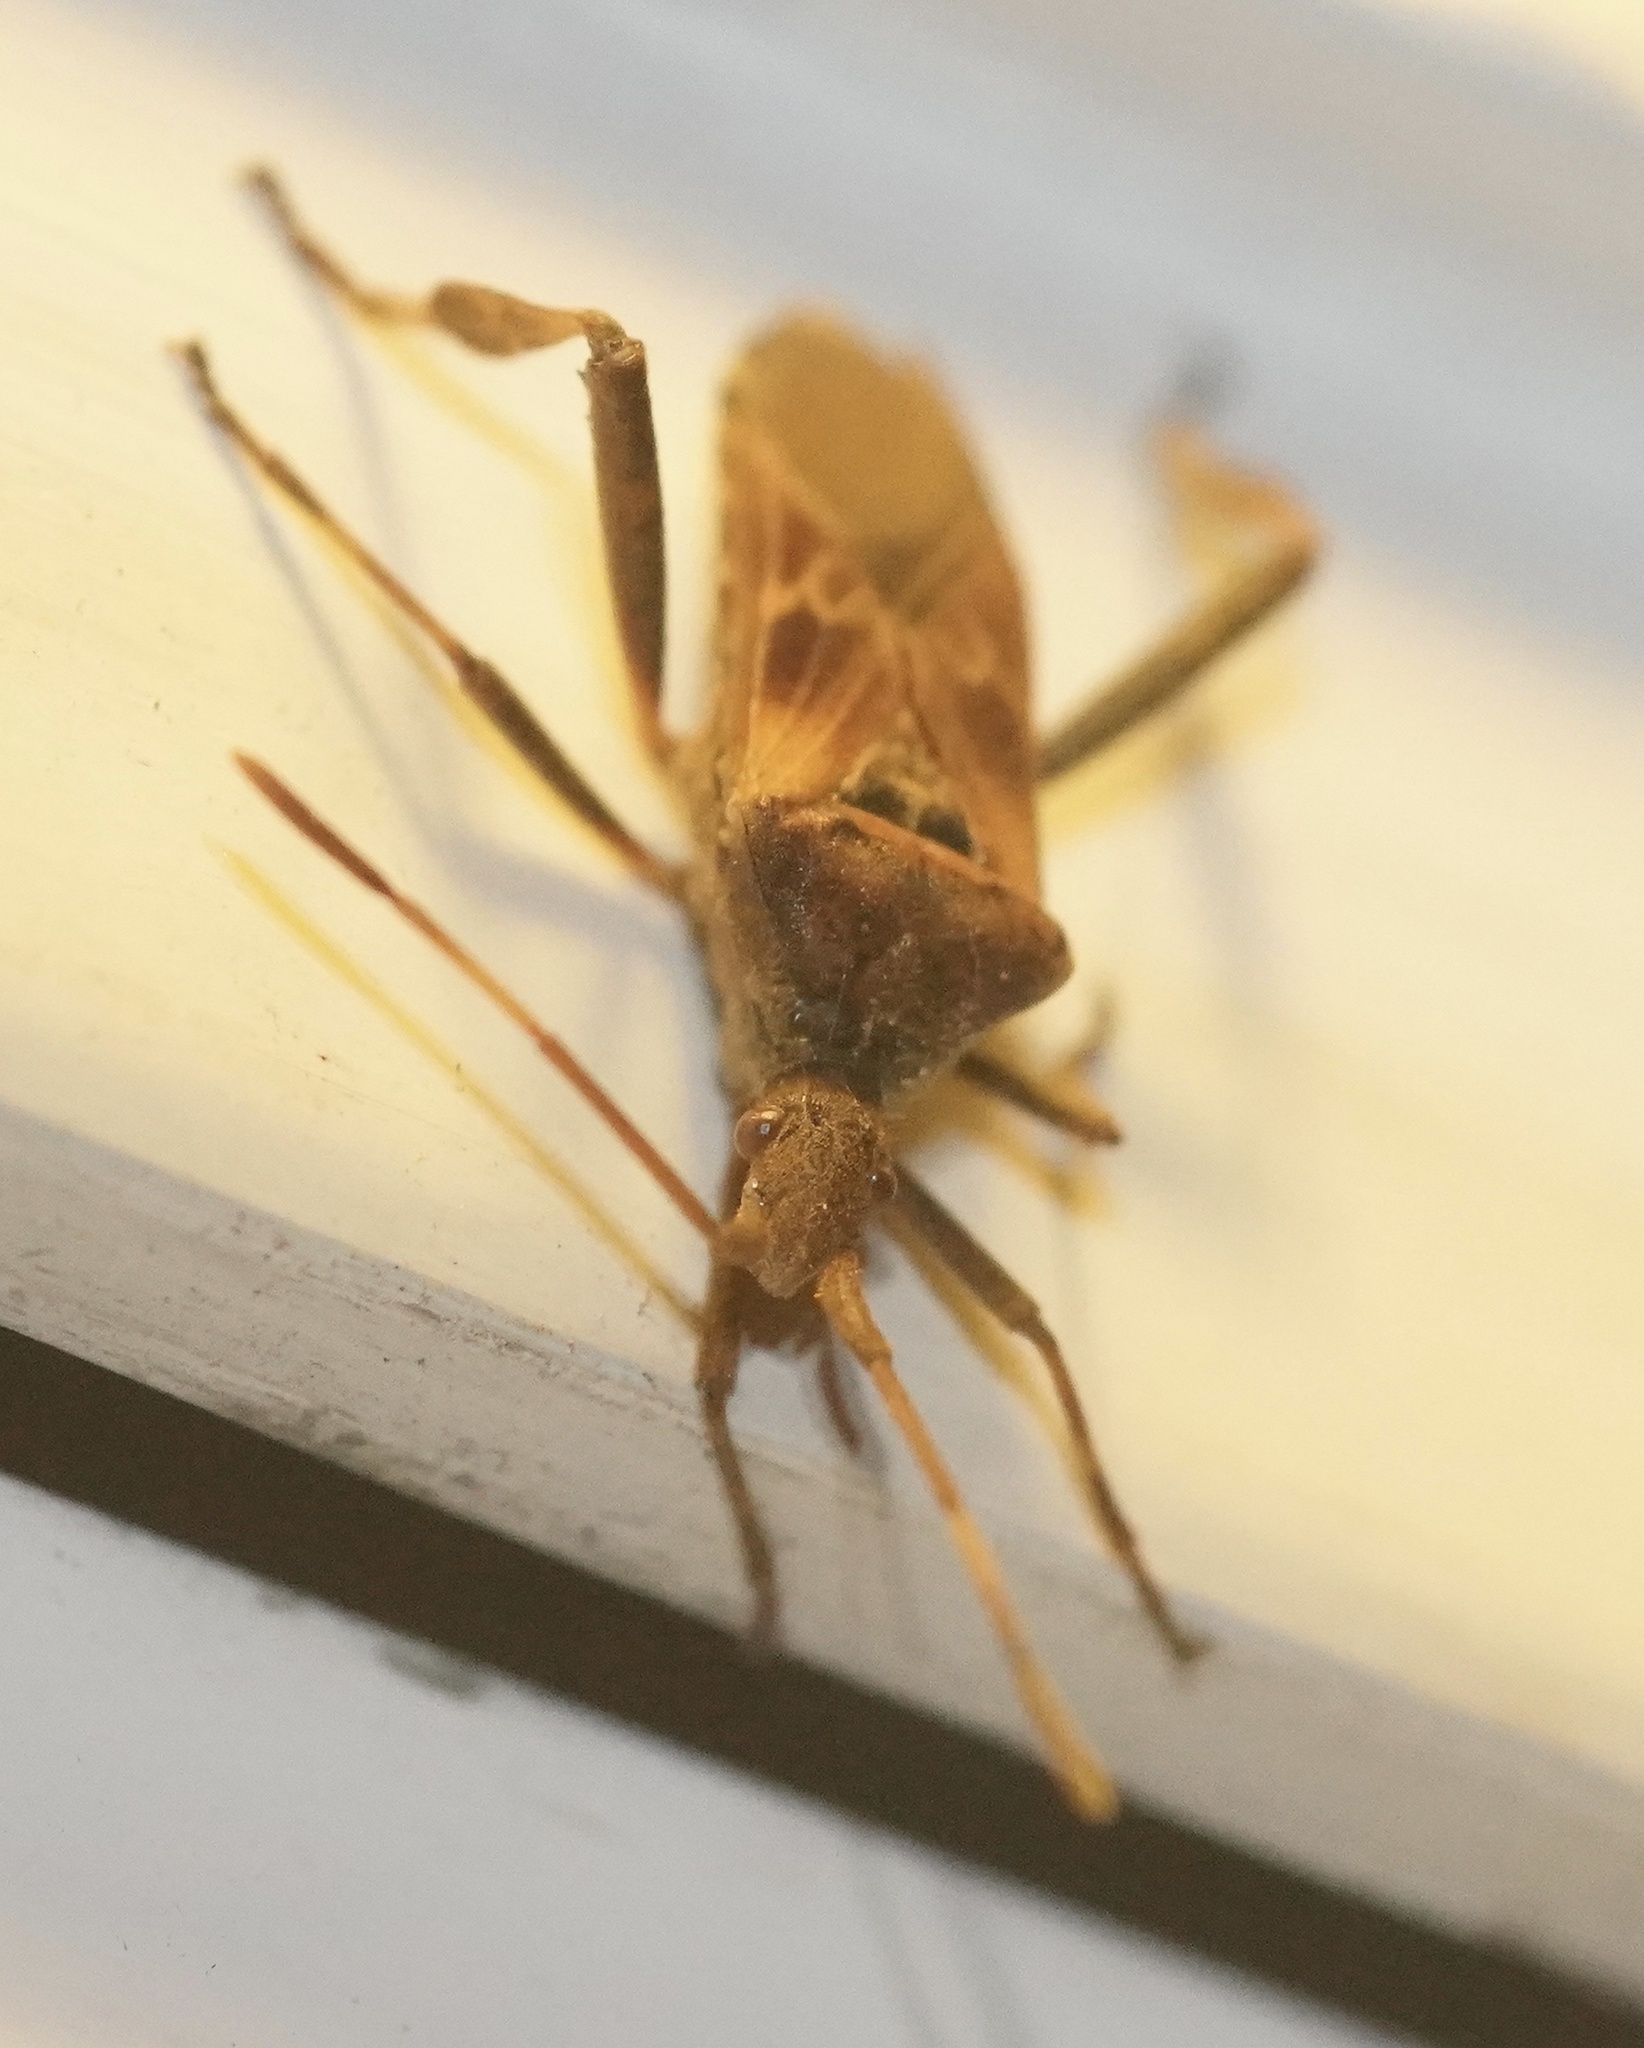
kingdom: Animalia
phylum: Arthropoda
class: Insecta
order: Hemiptera
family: Coreidae
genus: Leptoglossus
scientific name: Leptoglossus occidentalis
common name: Western conifer-seed bug
